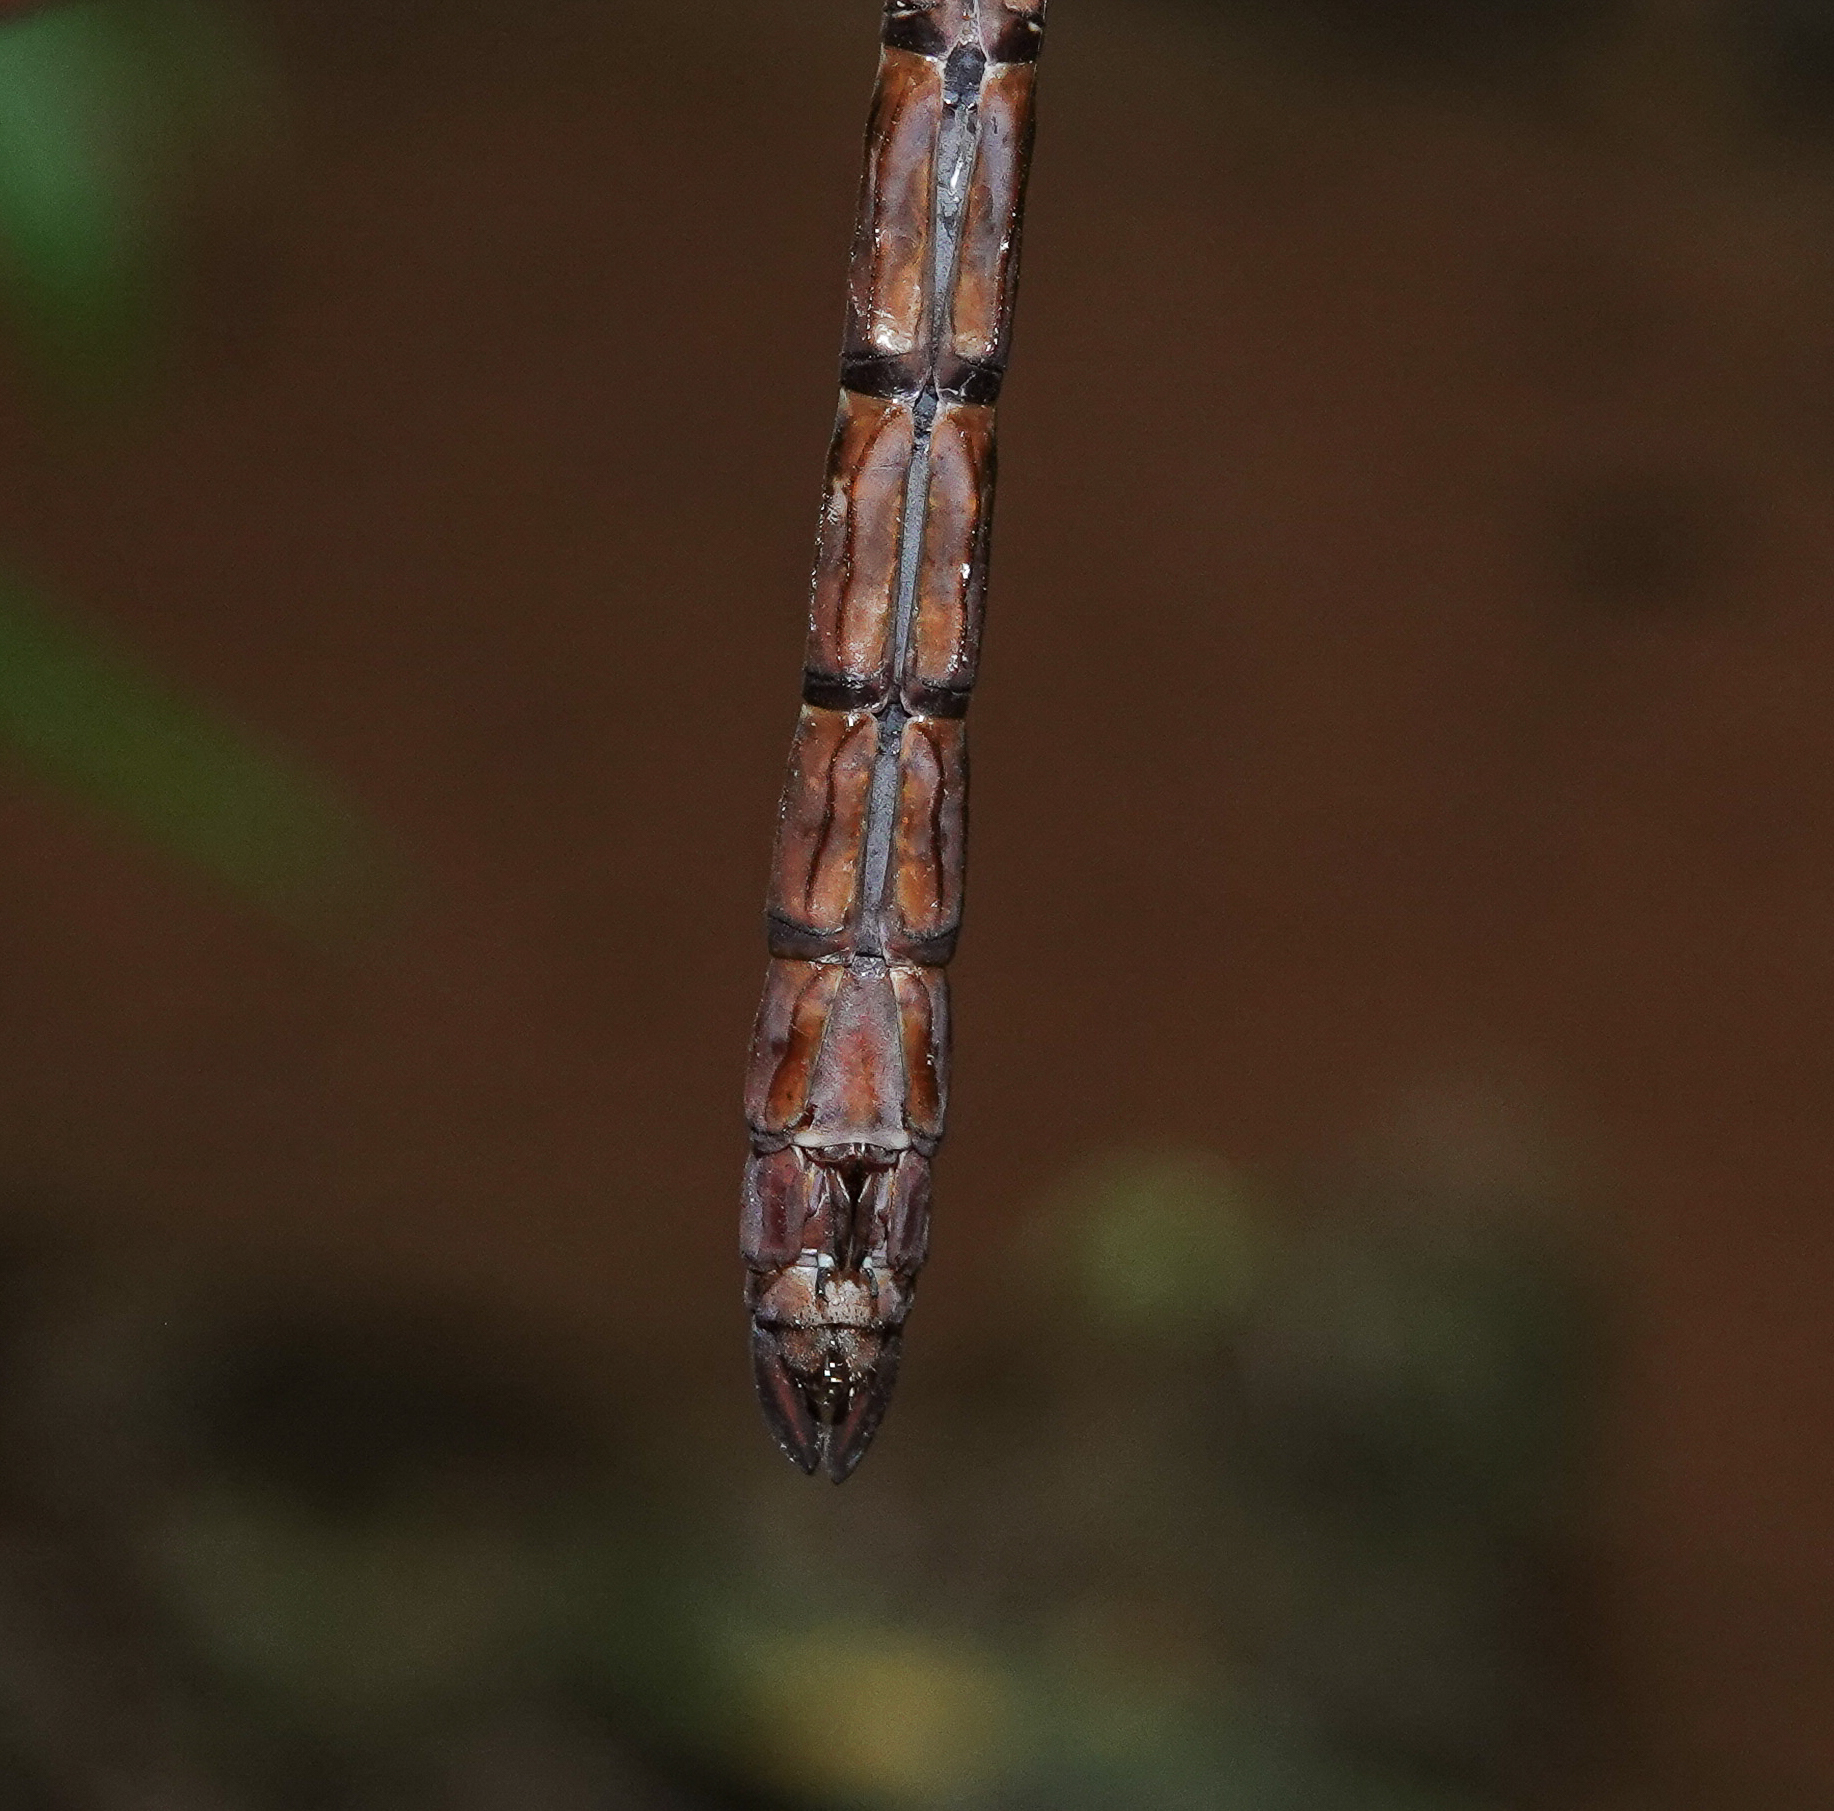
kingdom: Animalia
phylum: Arthropoda
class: Insecta
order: Odonata
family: Aeshnidae
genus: Anax
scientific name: Anax guttatus
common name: Emperor
